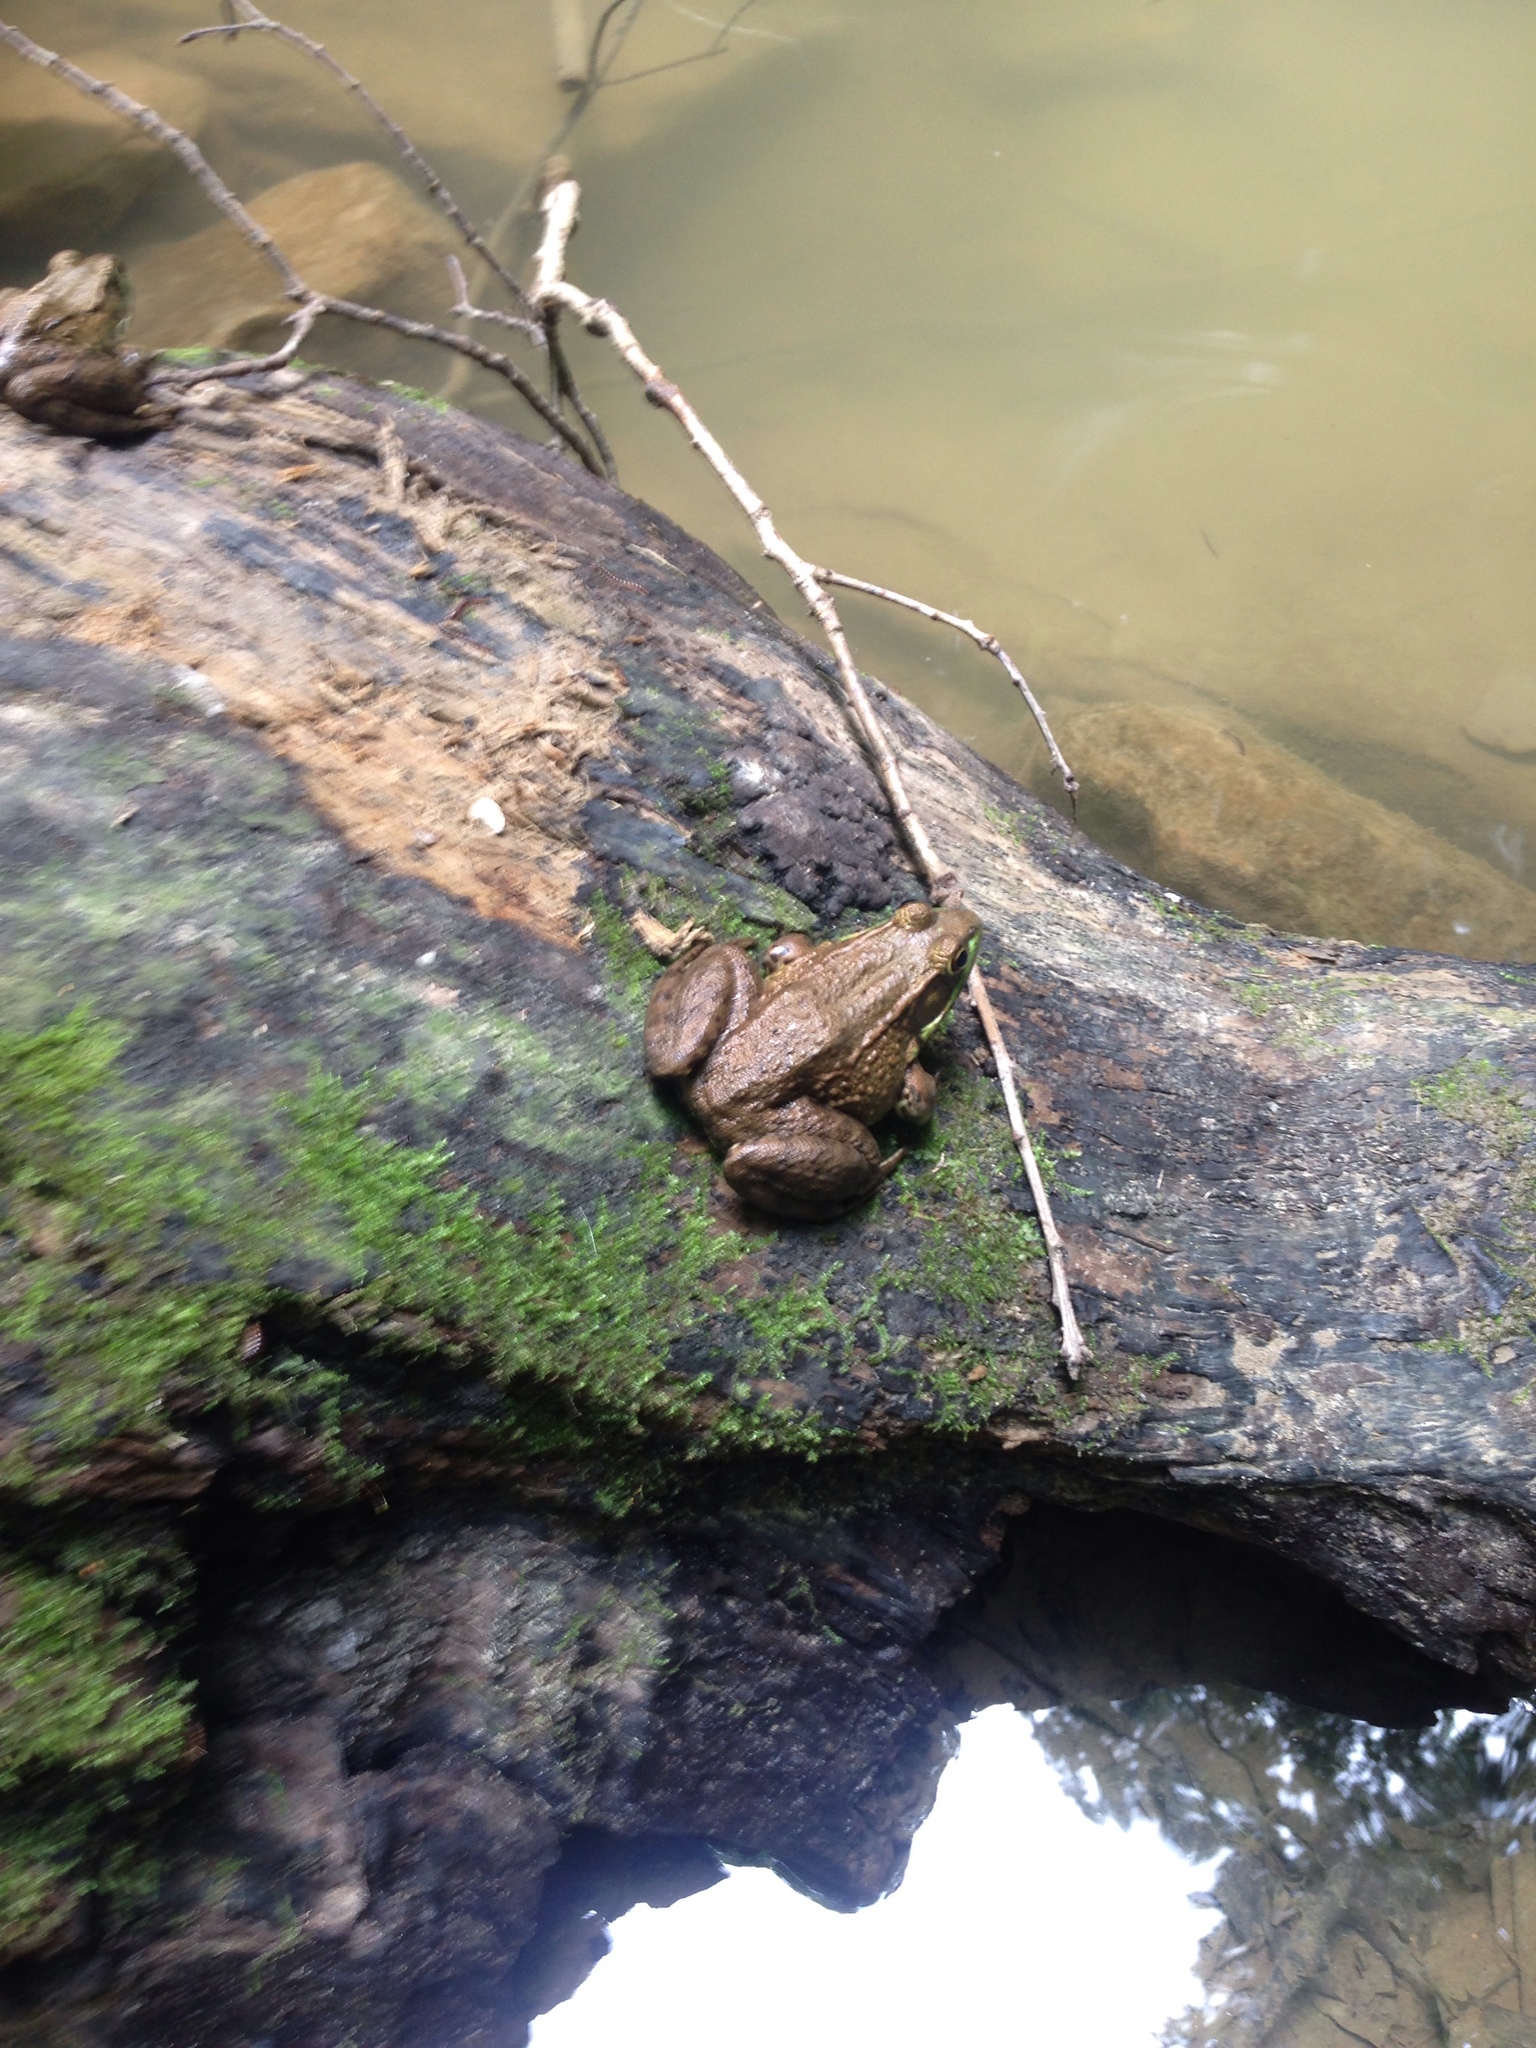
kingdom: Animalia
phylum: Chordata
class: Amphibia
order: Anura
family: Ranidae
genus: Lithobates
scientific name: Lithobates clamitans
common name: Green frog
